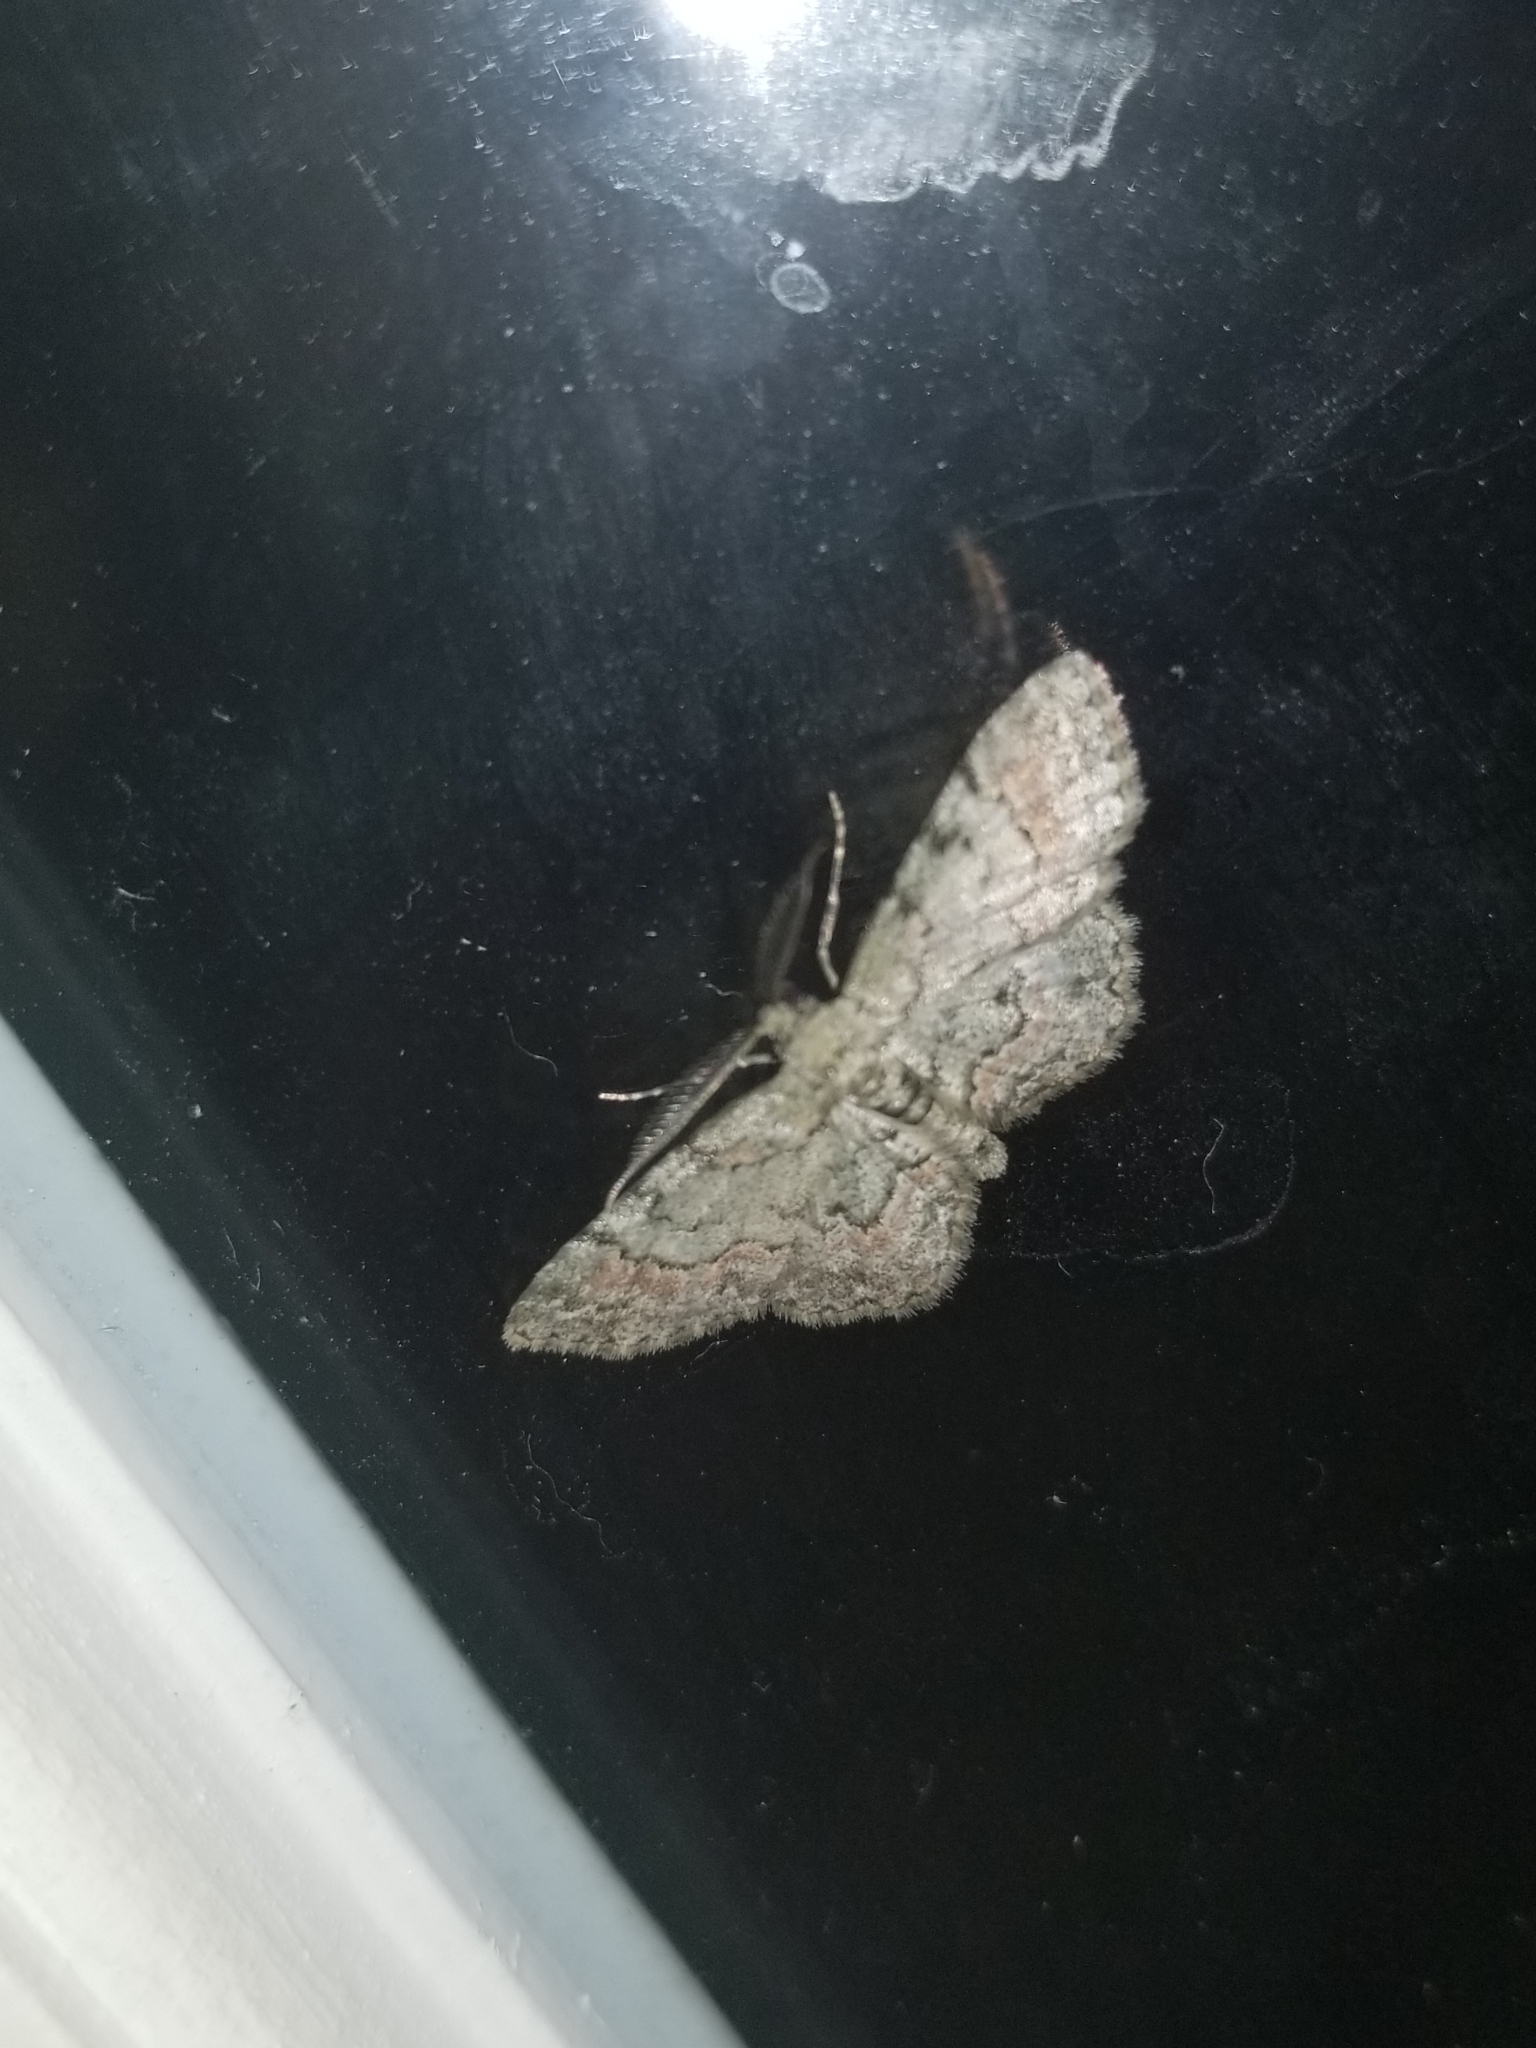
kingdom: Animalia
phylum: Arthropoda
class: Insecta
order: Lepidoptera
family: Geometridae
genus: Glenoides
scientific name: Glenoides texanaria
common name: Texas gray
